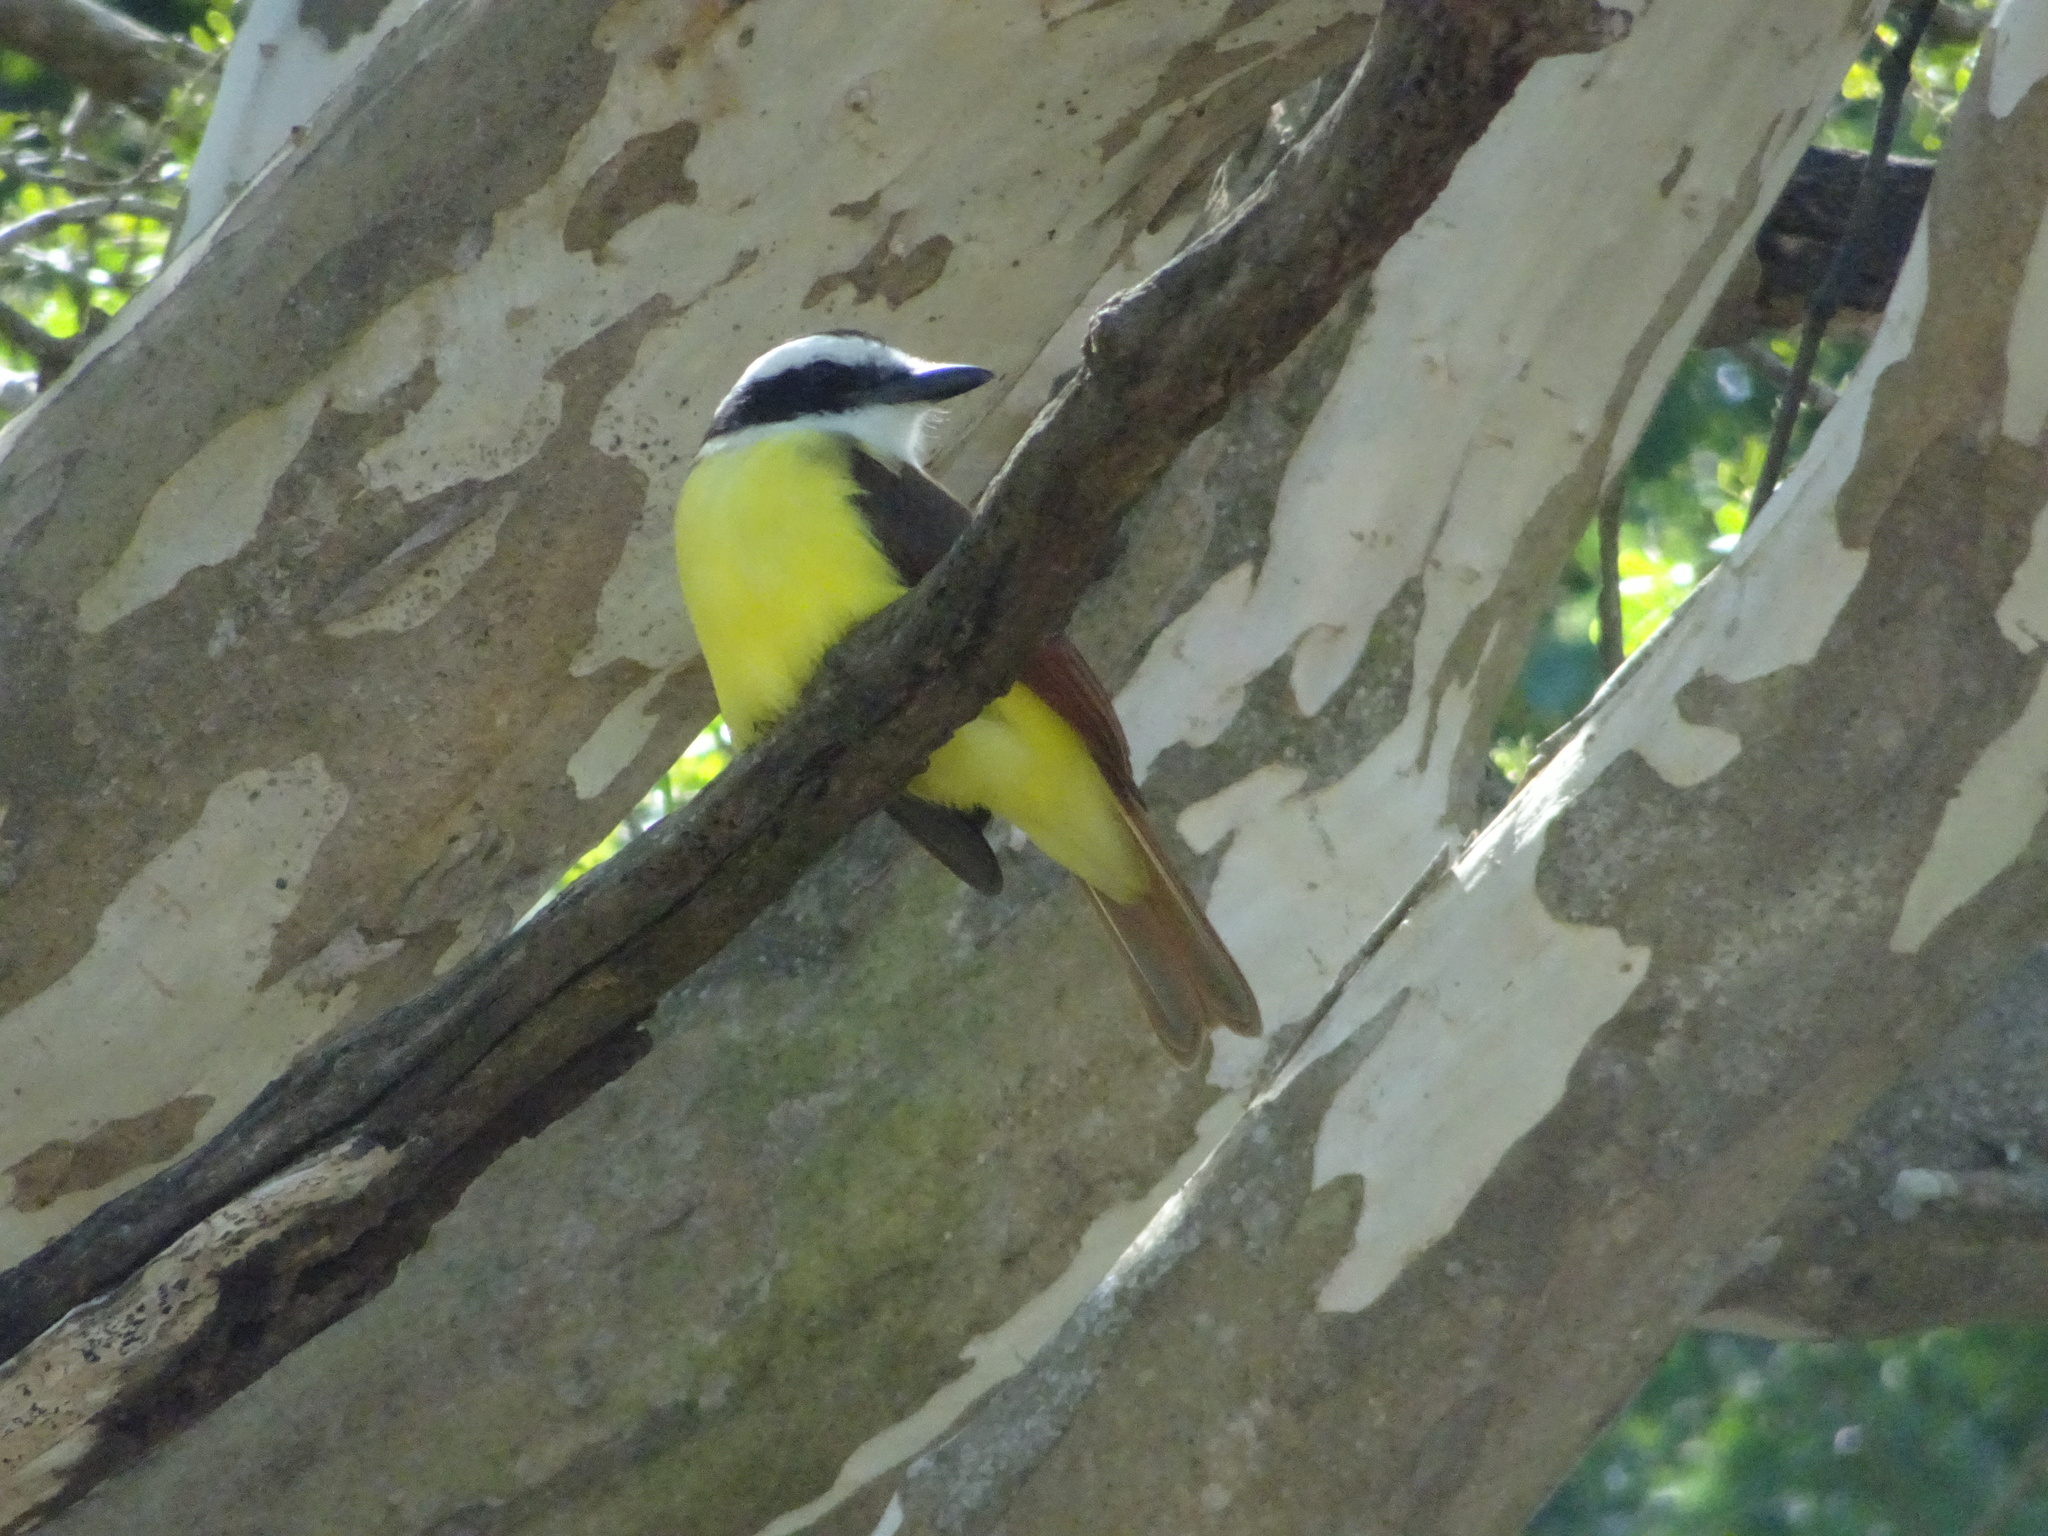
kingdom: Animalia
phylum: Chordata
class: Aves
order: Passeriformes
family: Tyrannidae
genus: Pitangus
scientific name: Pitangus sulphuratus
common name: Great kiskadee
